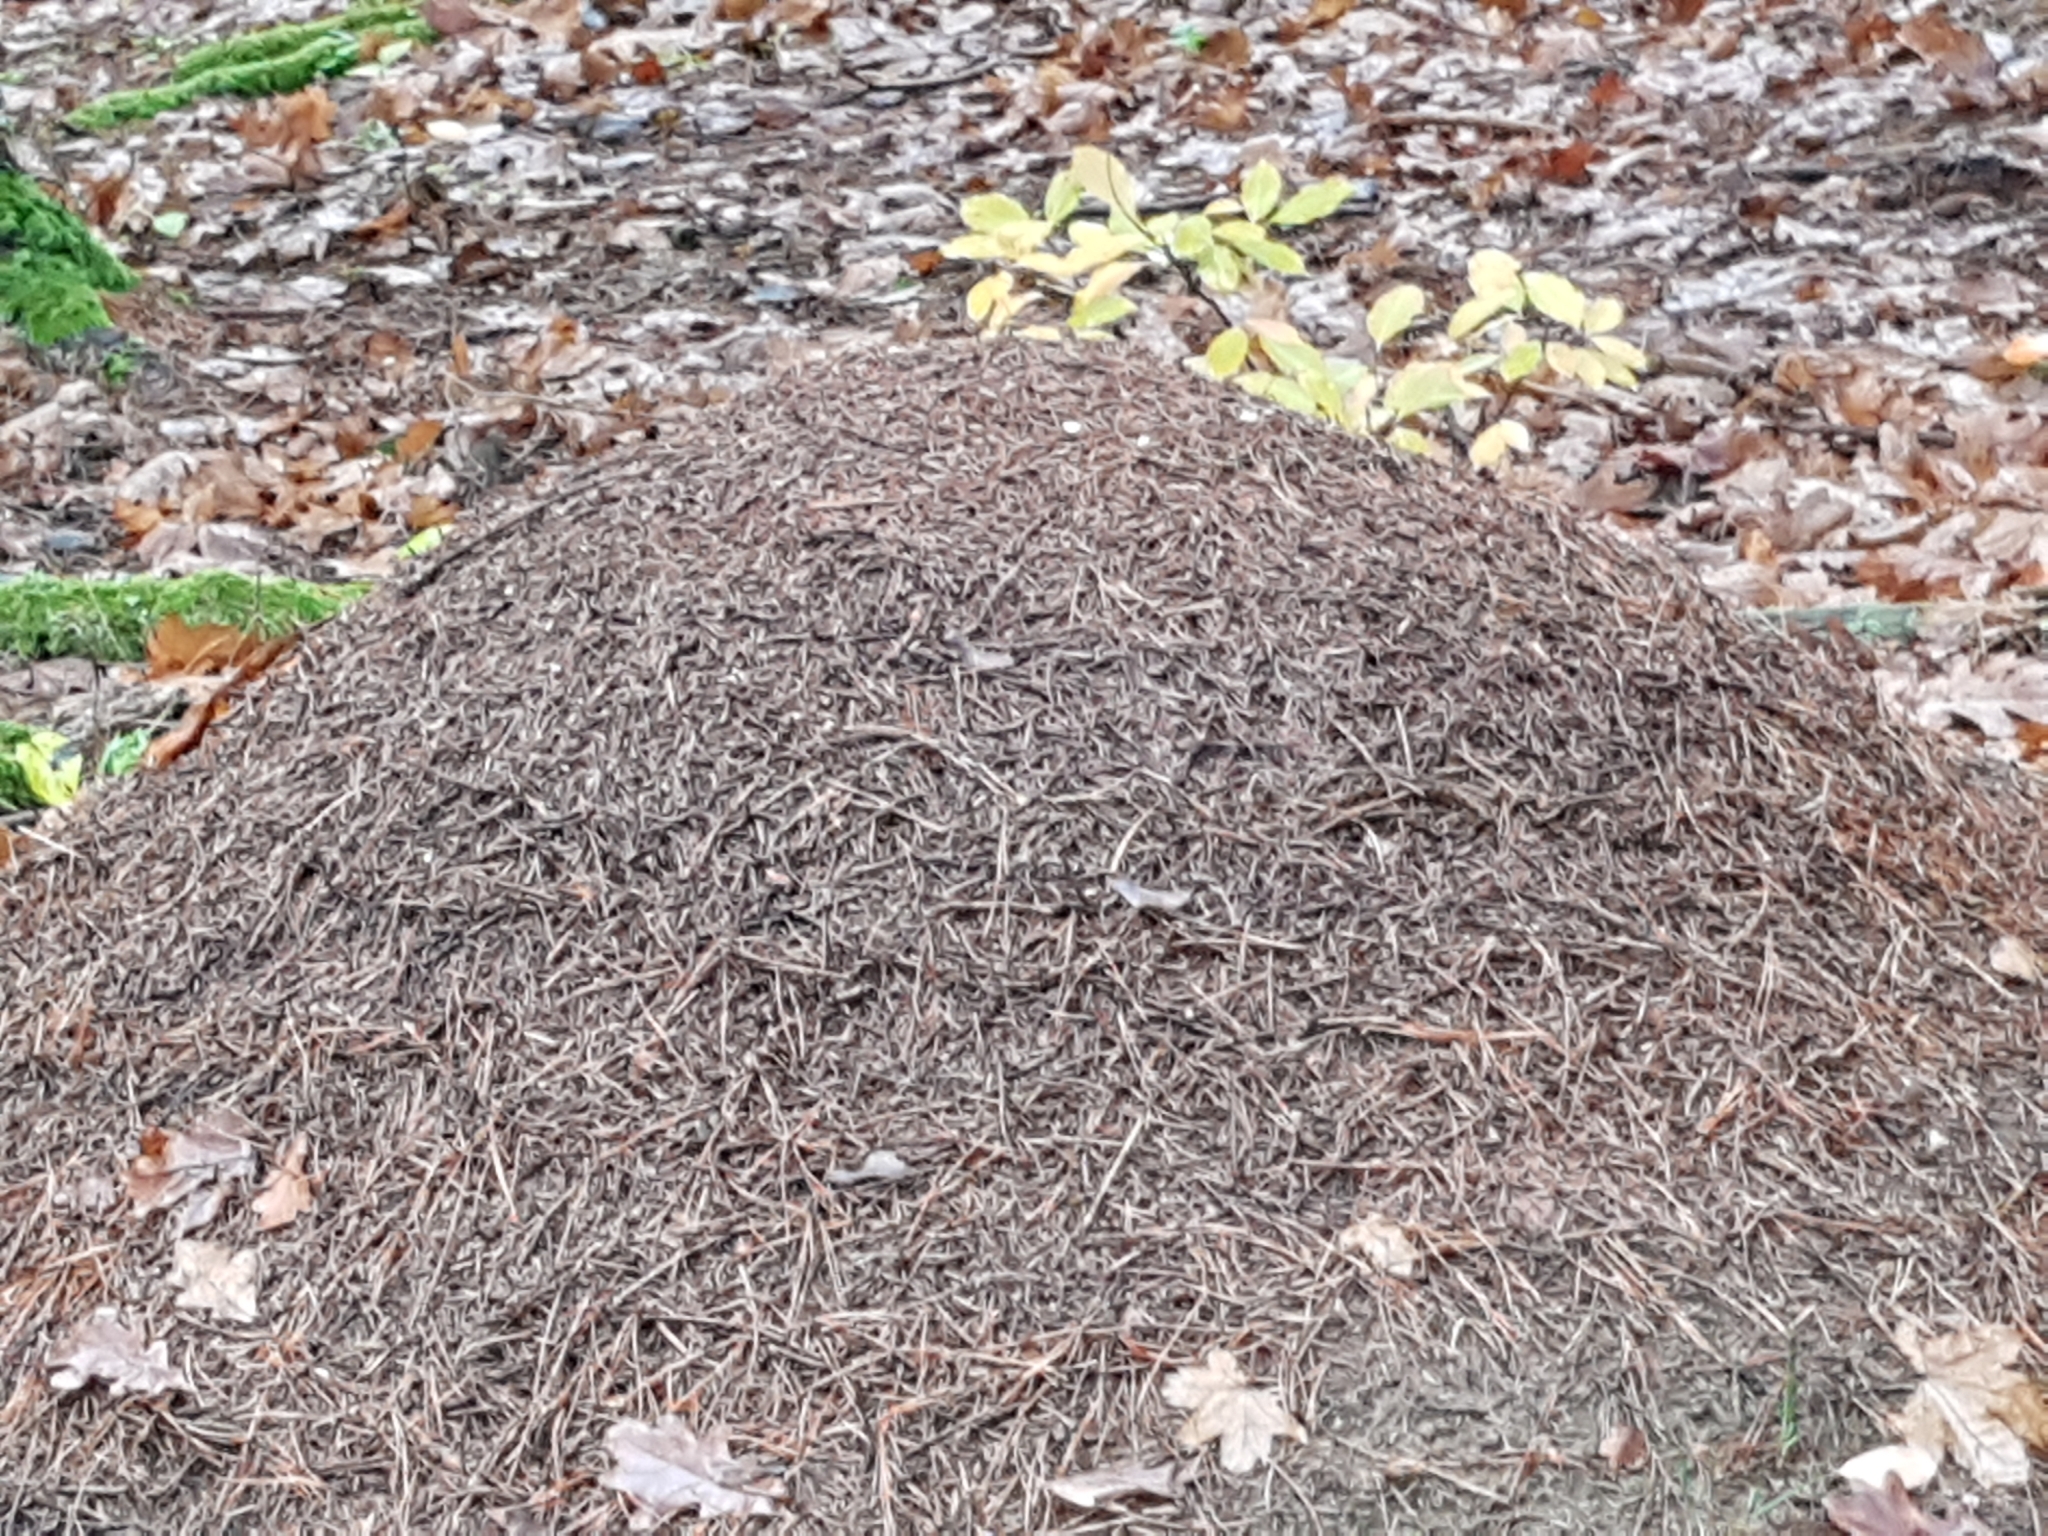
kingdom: Animalia
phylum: Arthropoda
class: Insecta
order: Hymenoptera
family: Formicidae
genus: Formica
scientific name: Formica
